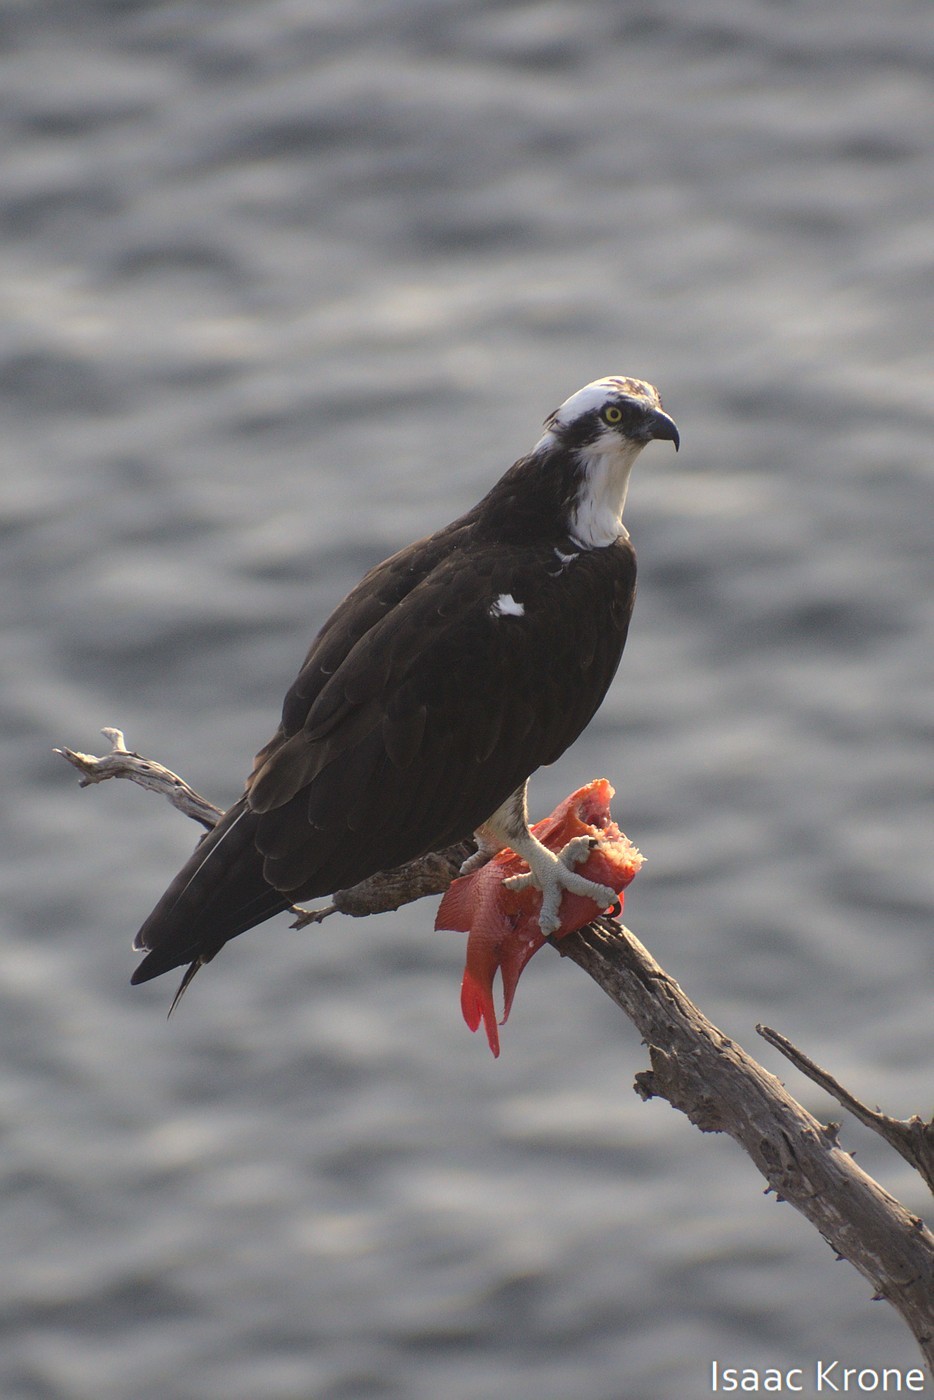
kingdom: Animalia
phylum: Chordata
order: Perciformes
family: Pomacentridae
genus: Hypsypops
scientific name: Hypsypops rubicundus
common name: Garibaldi
